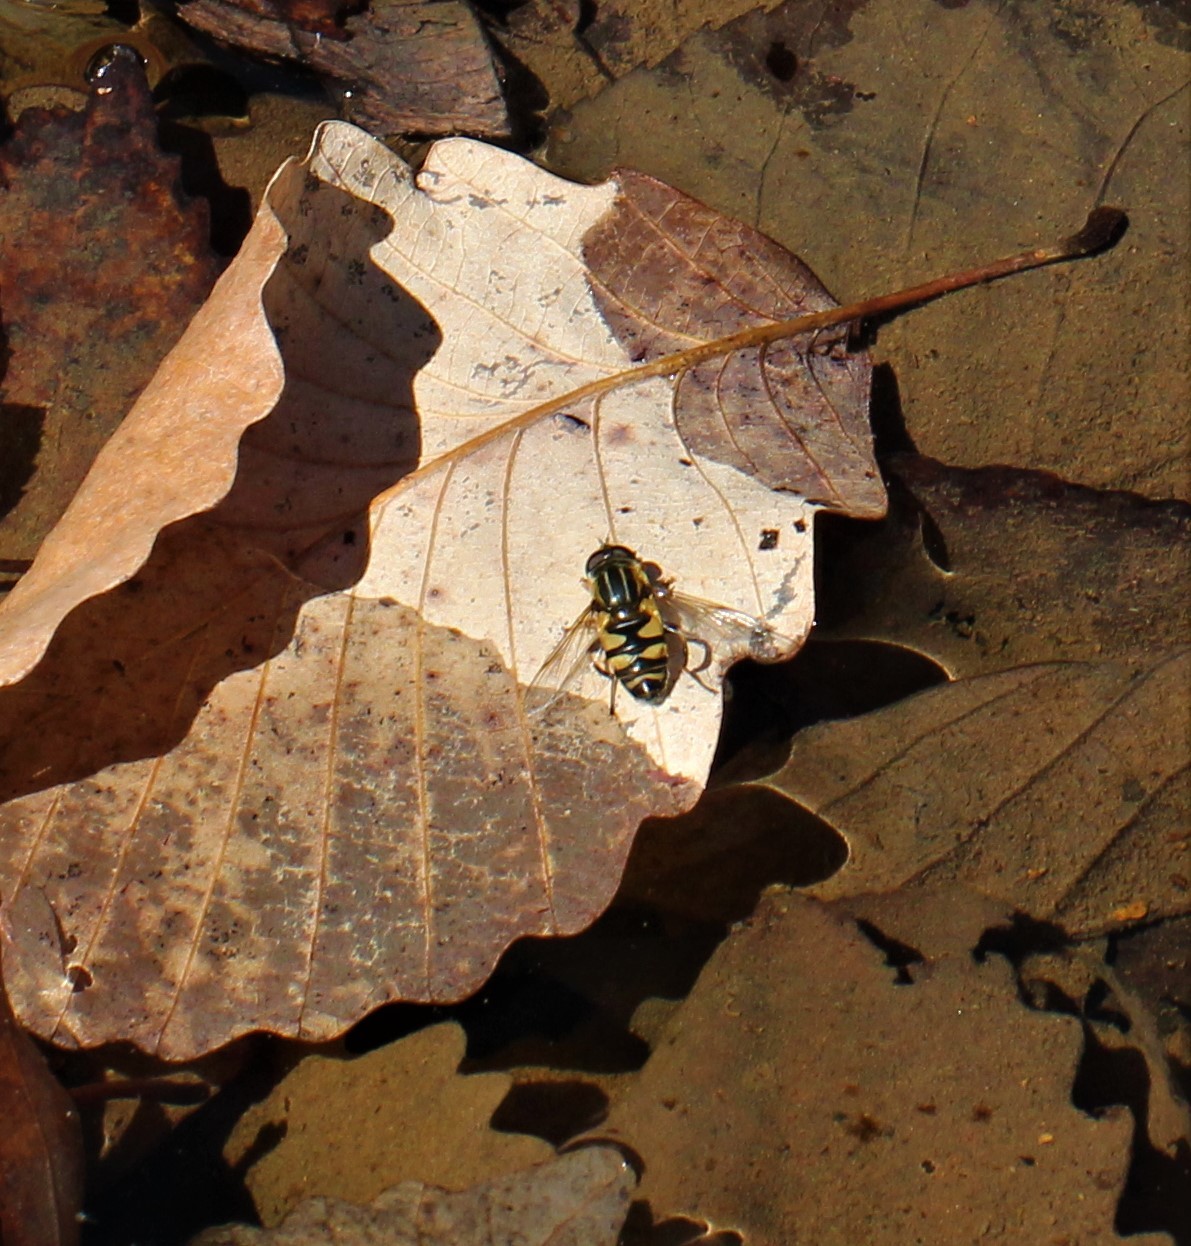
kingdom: Animalia
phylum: Arthropoda
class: Insecta
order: Diptera
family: Syrphidae
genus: Helophilus
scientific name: Helophilus fasciatus
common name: Narrow-headed marsh fly
